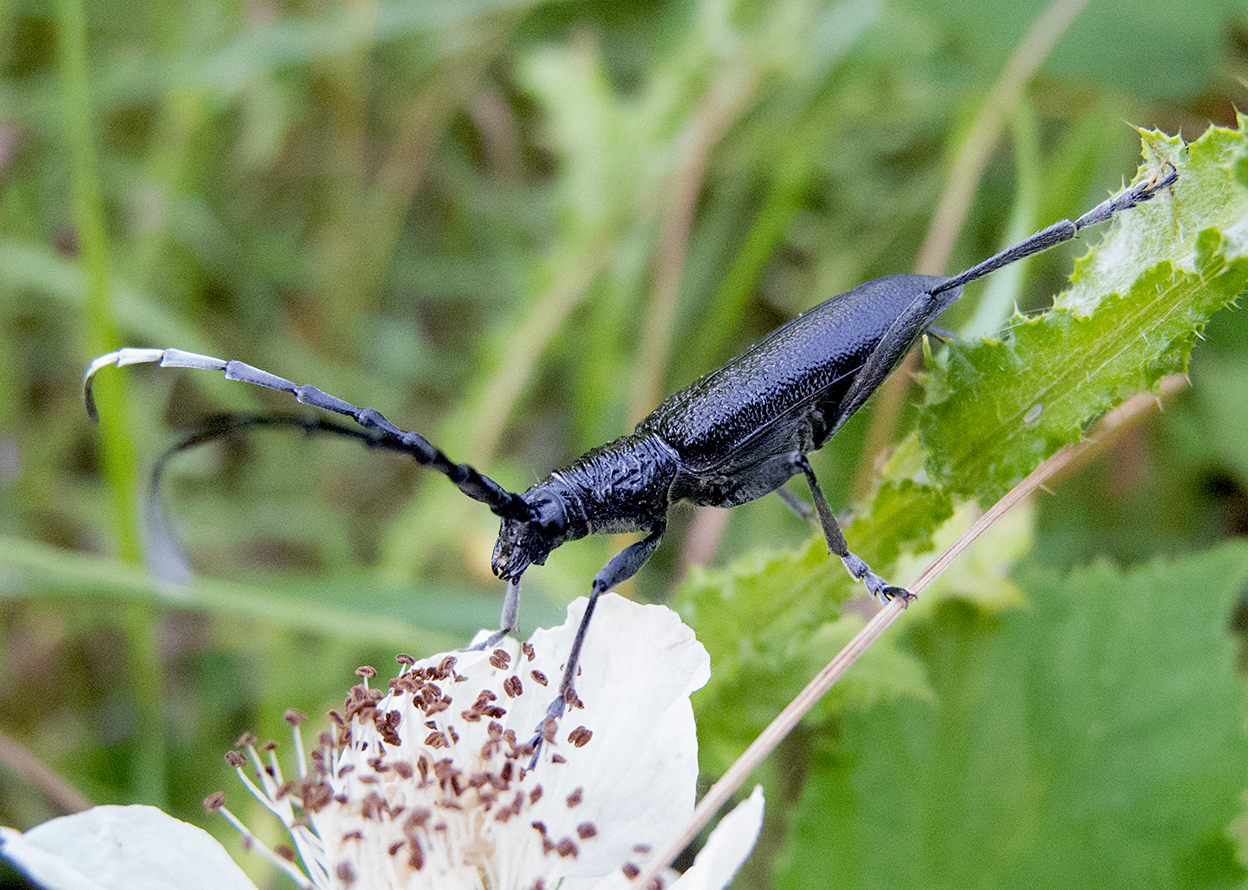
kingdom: Animalia
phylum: Arthropoda
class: Insecta
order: Coleoptera
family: Cerambycidae
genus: Cerambyx
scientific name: Cerambyx scopolii
